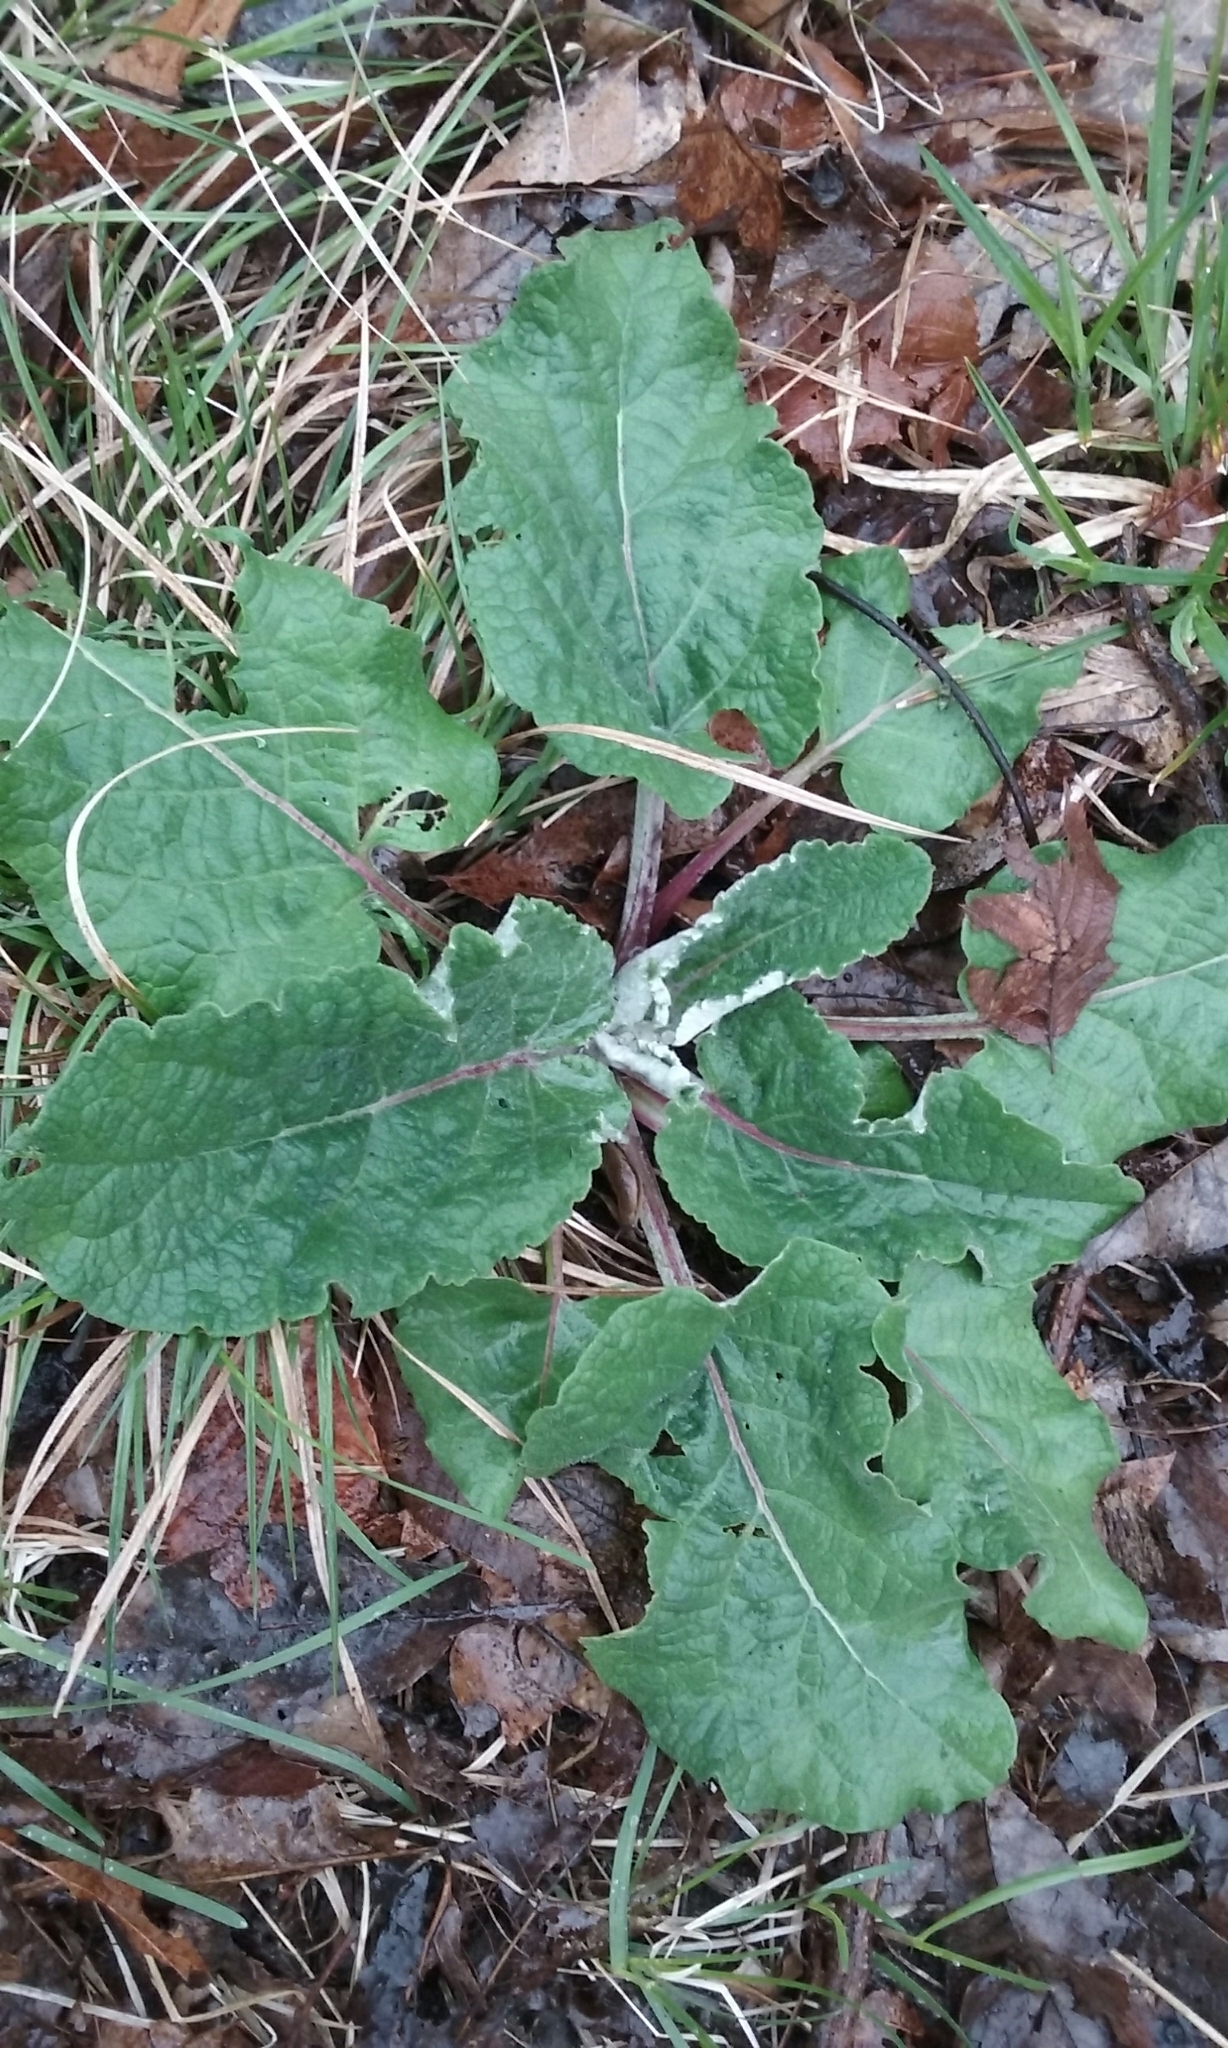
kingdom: Plantae
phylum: Tracheophyta
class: Magnoliopsida
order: Asterales
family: Asteraceae
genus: Arctium
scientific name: Arctium
